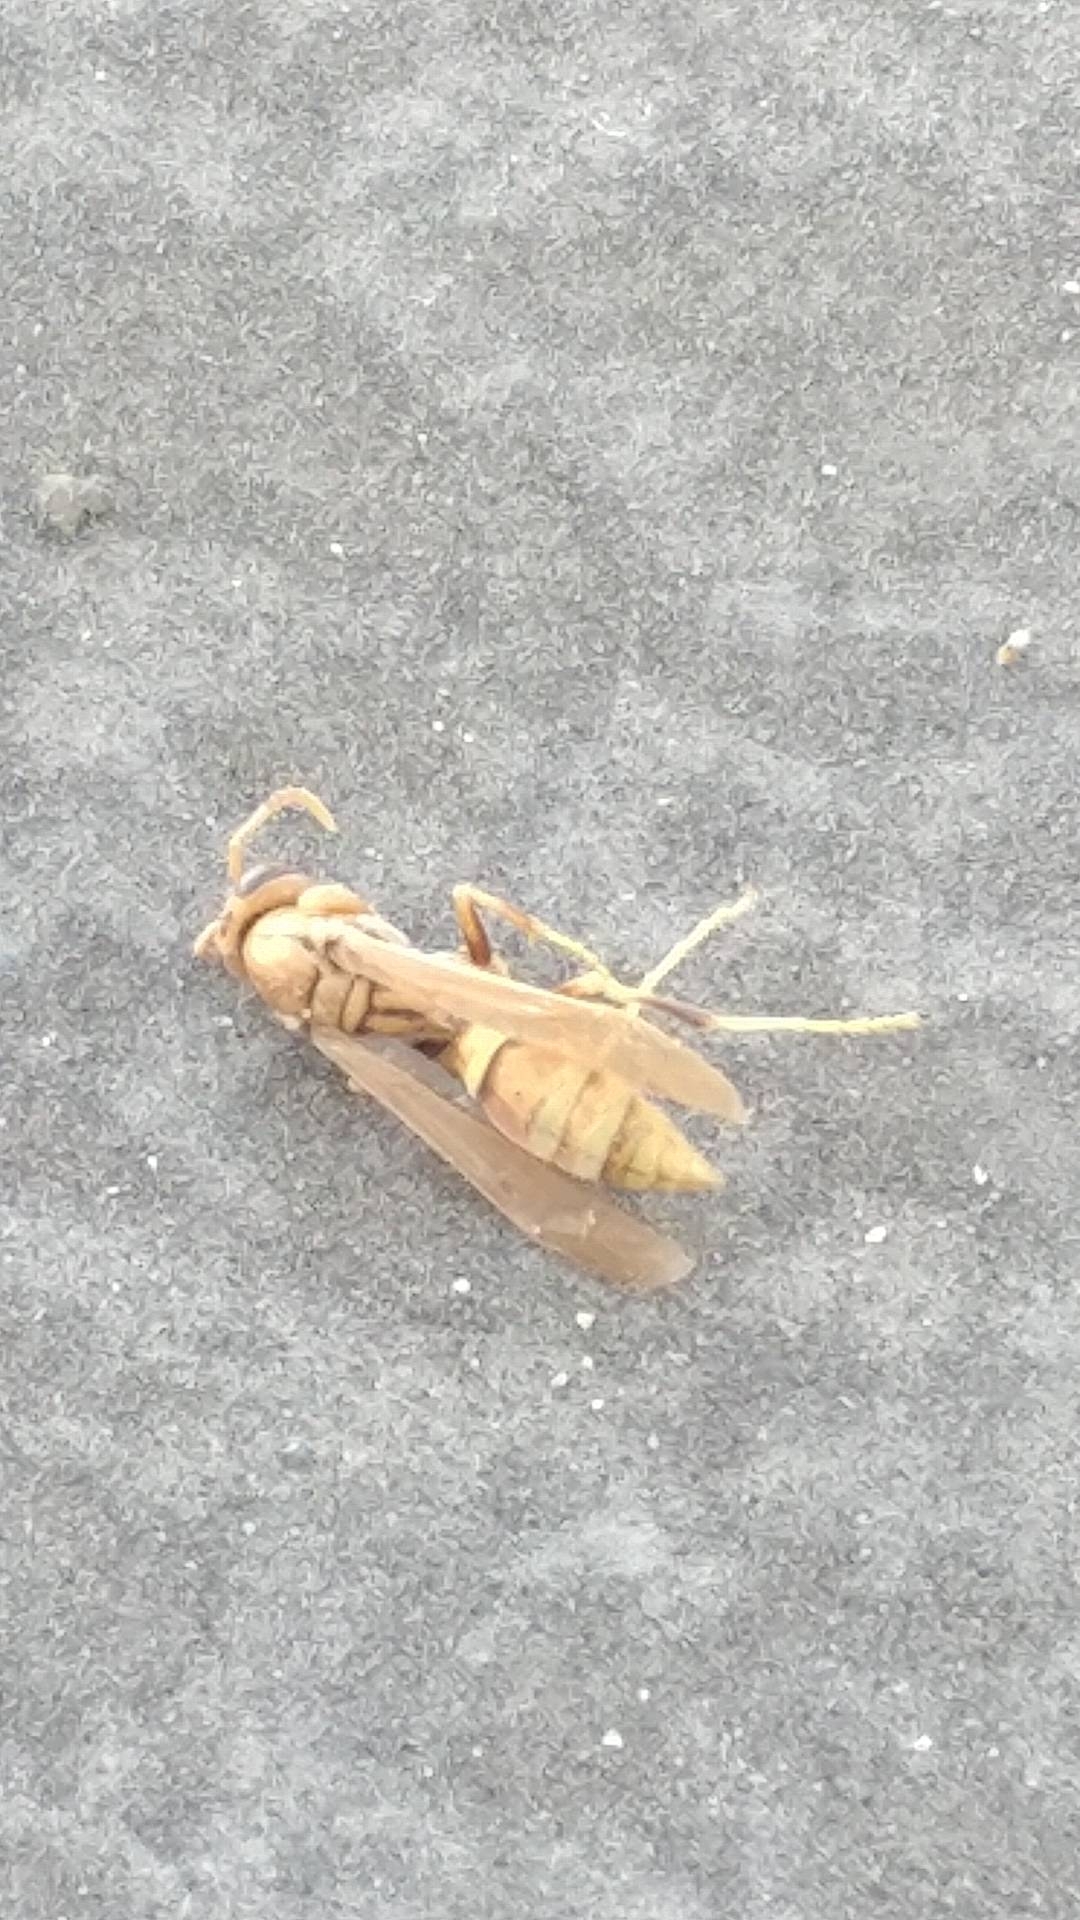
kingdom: Animalia
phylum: Arthropoda
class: Insecta
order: Hymenoptera
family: Eumenidae
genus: Polistes
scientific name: Polistes exclamans
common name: Paper wasp
